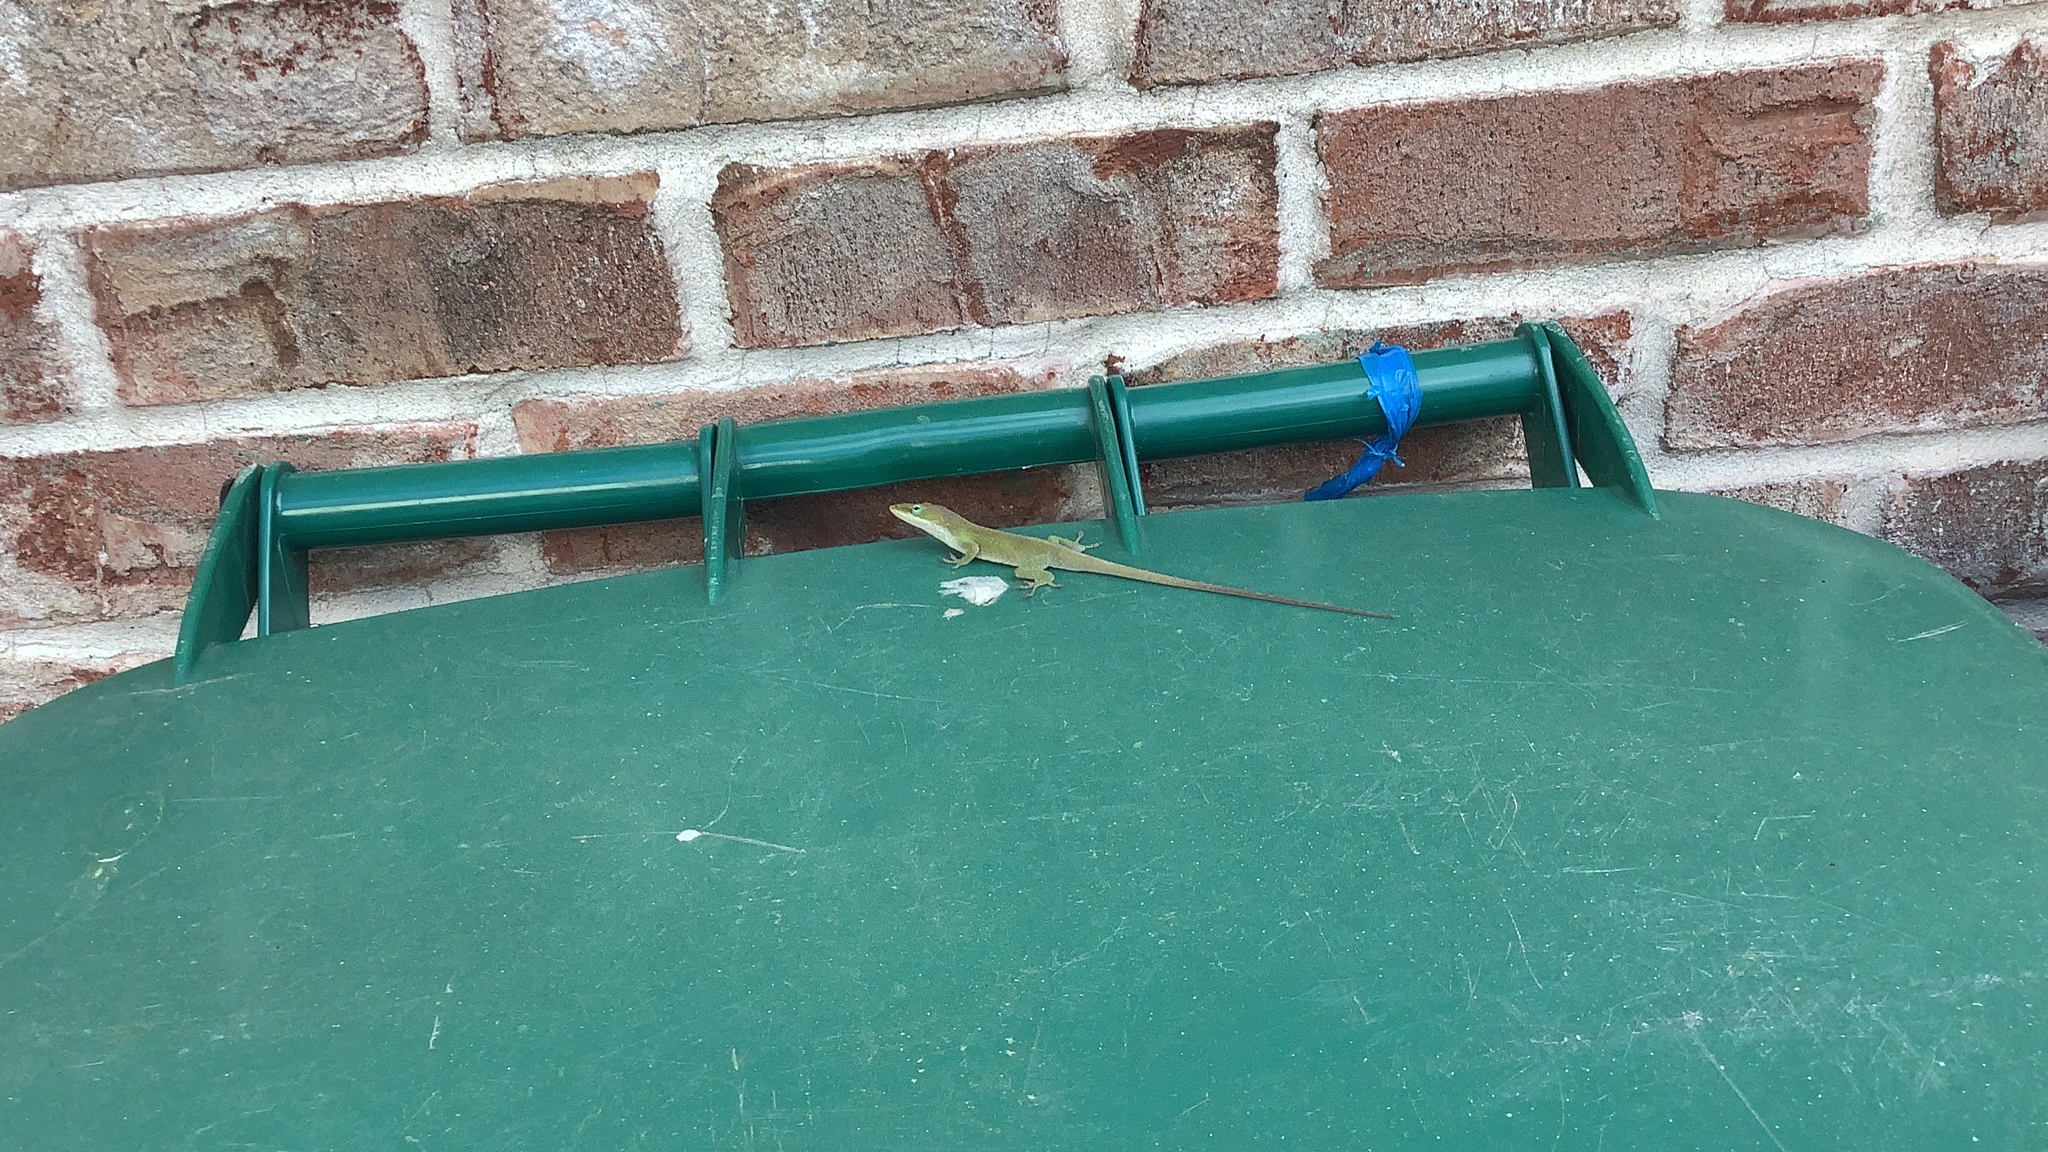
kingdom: Animalia
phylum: Chordata
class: Squamata
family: Dactyloidae
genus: Anolis
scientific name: Anolis carolinensis
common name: Green anole
